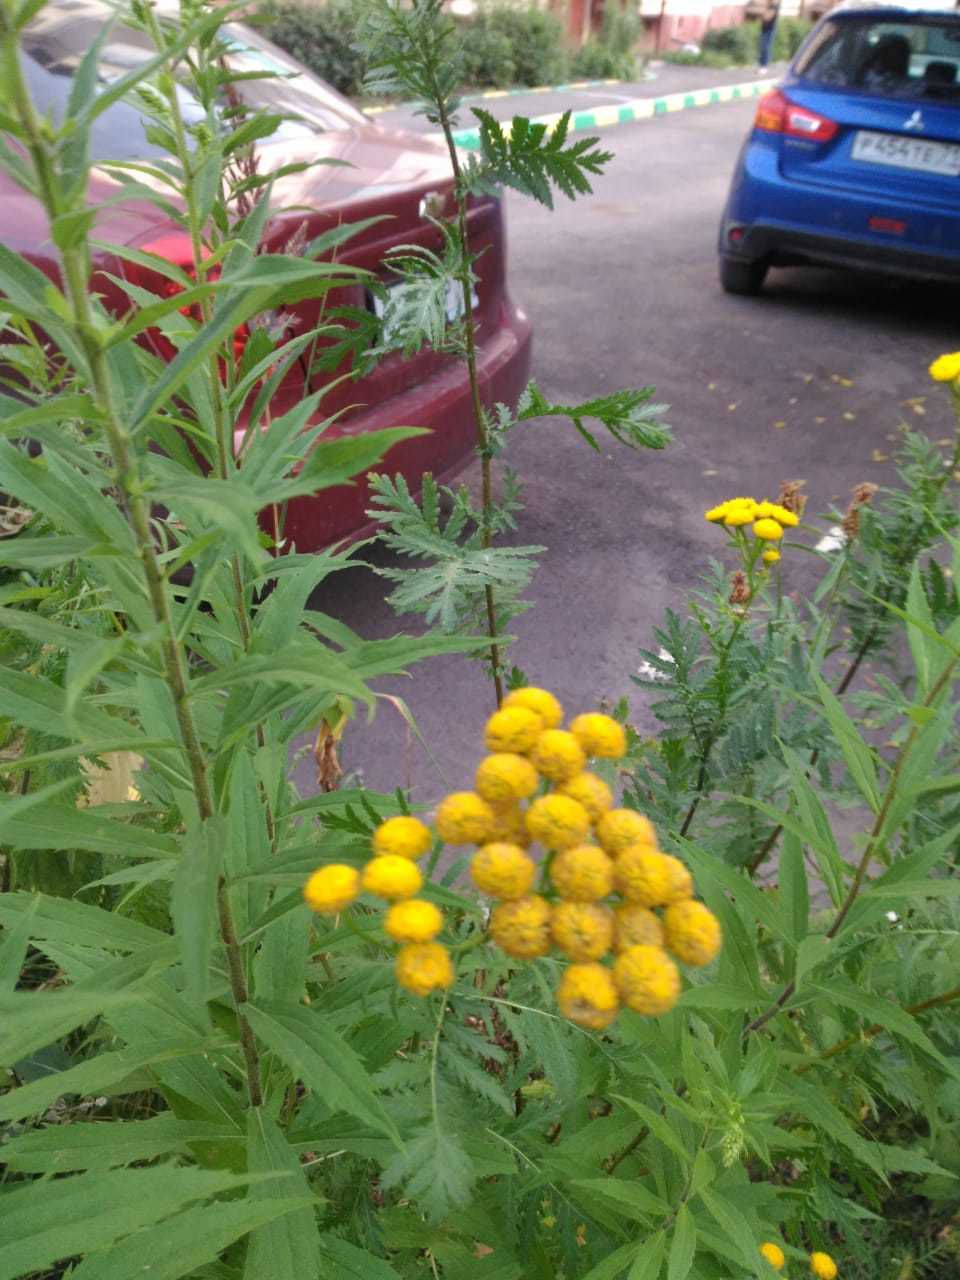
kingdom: Plantae
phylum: Tracheophyta
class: Magnoliopsida
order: Asterales
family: Asteraceae
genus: Tanacetum
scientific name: Tanacetum vulgare
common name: Common tansy
